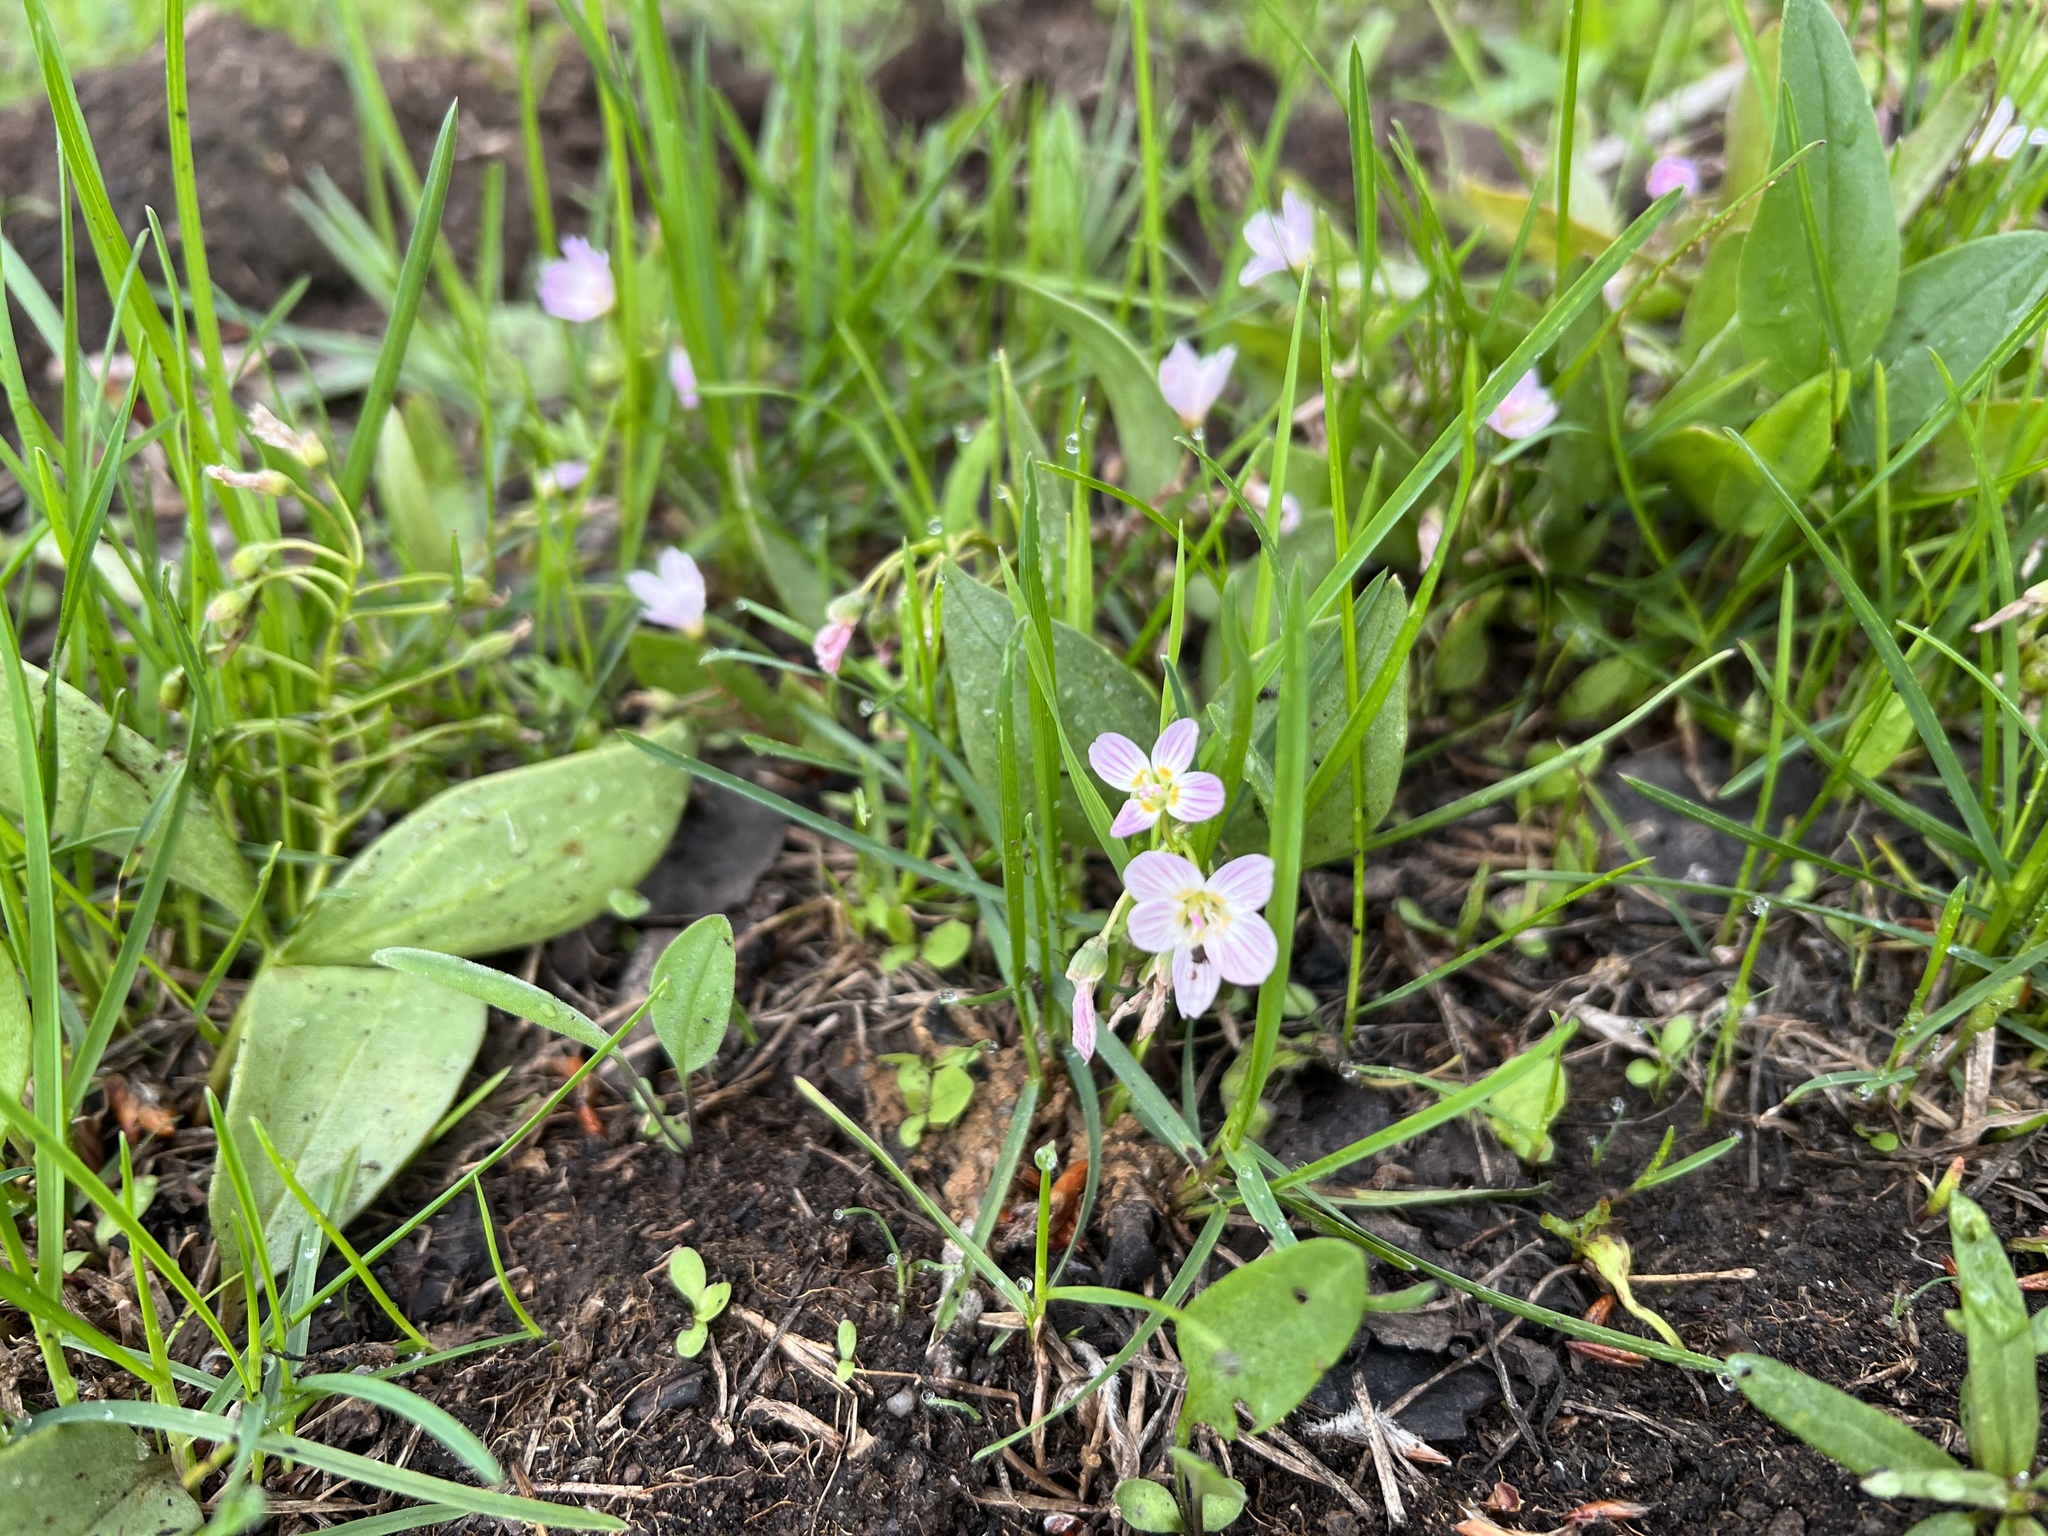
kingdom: Plantae
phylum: Tracheophyta
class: Magnoliopsida
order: Caryophyllales
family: Montiaceae
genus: Claytonia
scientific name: Claytonia lanceolata
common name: Western spring-beauty
